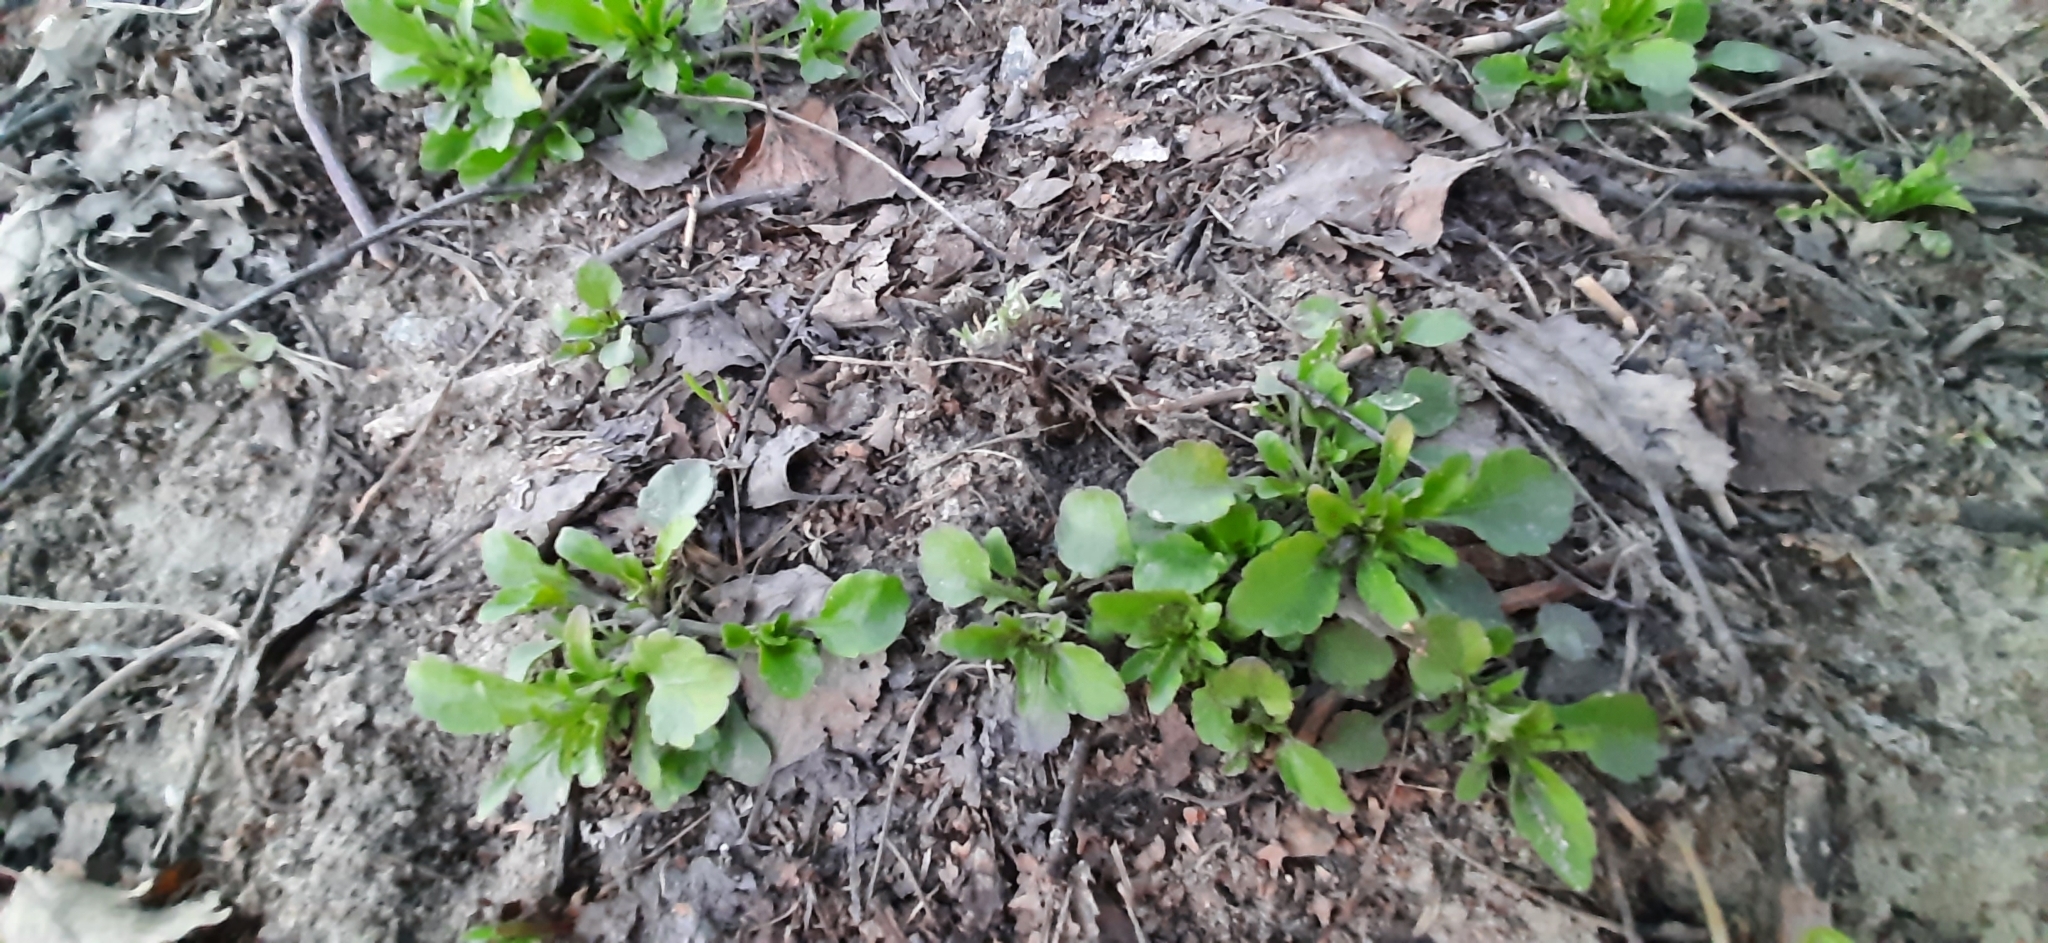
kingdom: Plantae
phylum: Tracheophyta
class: Magnoliopsida
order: Malpighiales
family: Violaceae
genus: Viola
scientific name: Viola arvensis
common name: Field pansy
